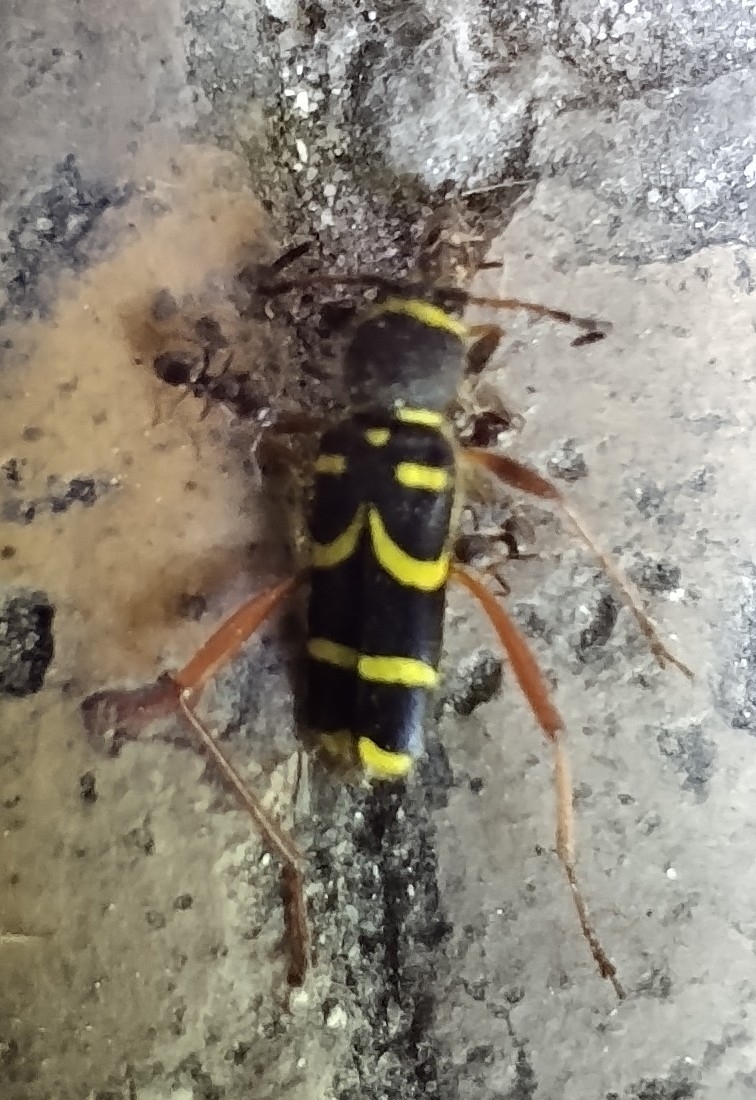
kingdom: Animalia
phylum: Arthropoda
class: Insecta
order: Coleoptera
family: Cerambycidae
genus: Clytus
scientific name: Clytus arietis
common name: Wasp beetle
